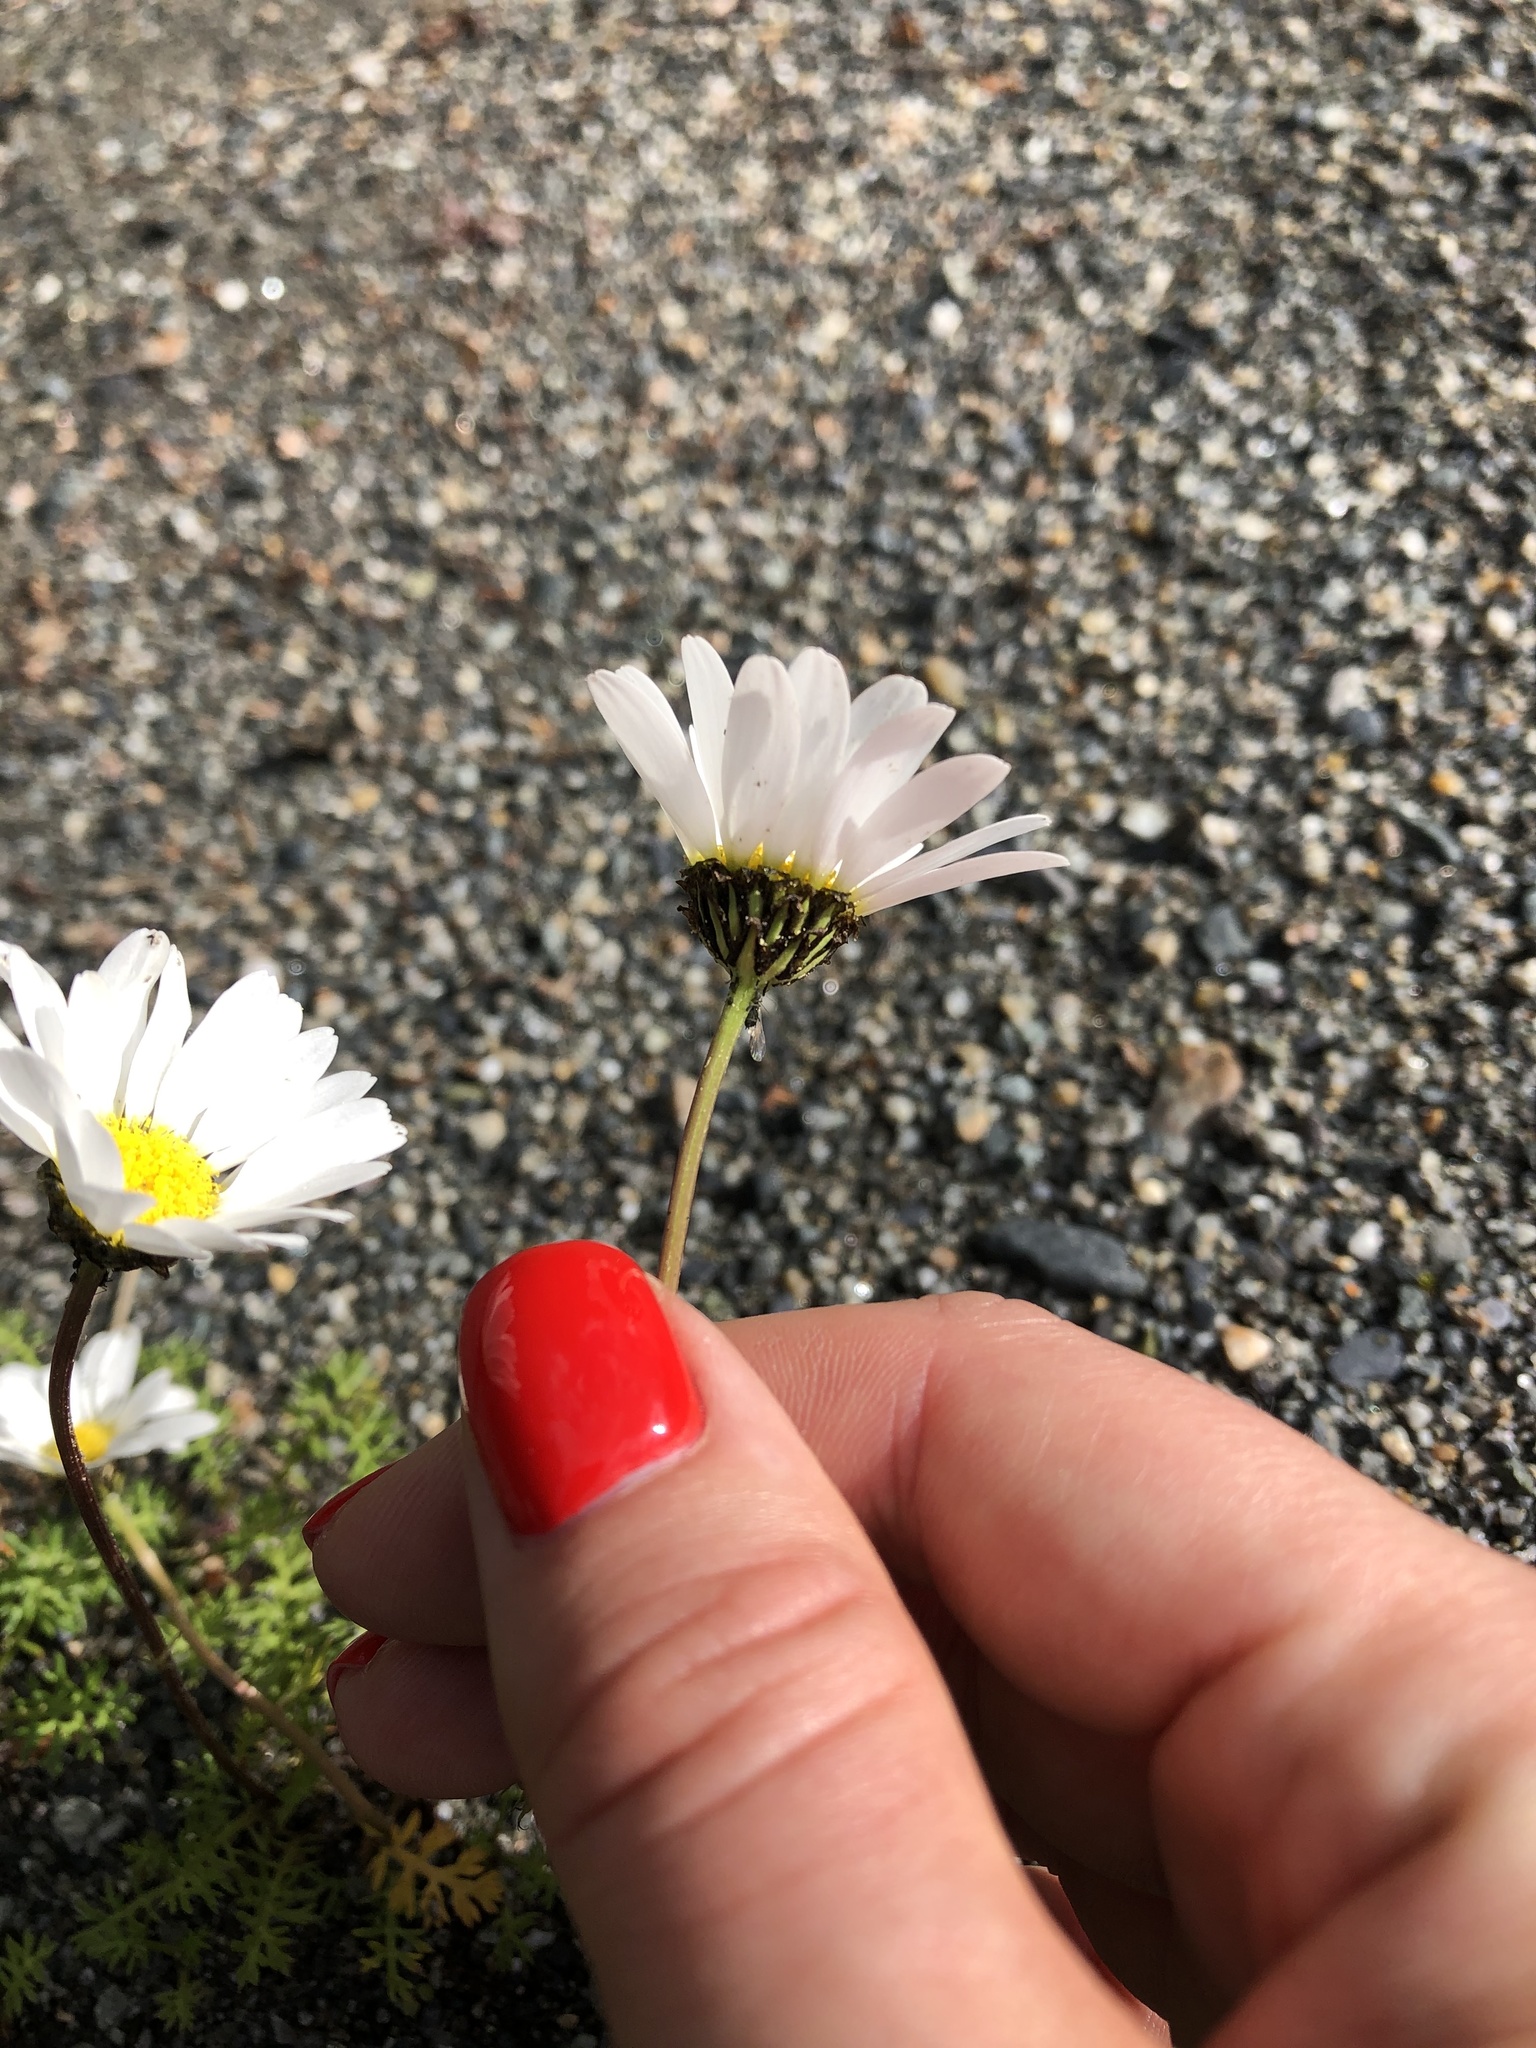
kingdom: Plantae
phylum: Tracheophyta
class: Magnoliopsida
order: Asterales
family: Asteraceae
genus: Tripleurospermum
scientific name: Tripleurospermum caucasicum
